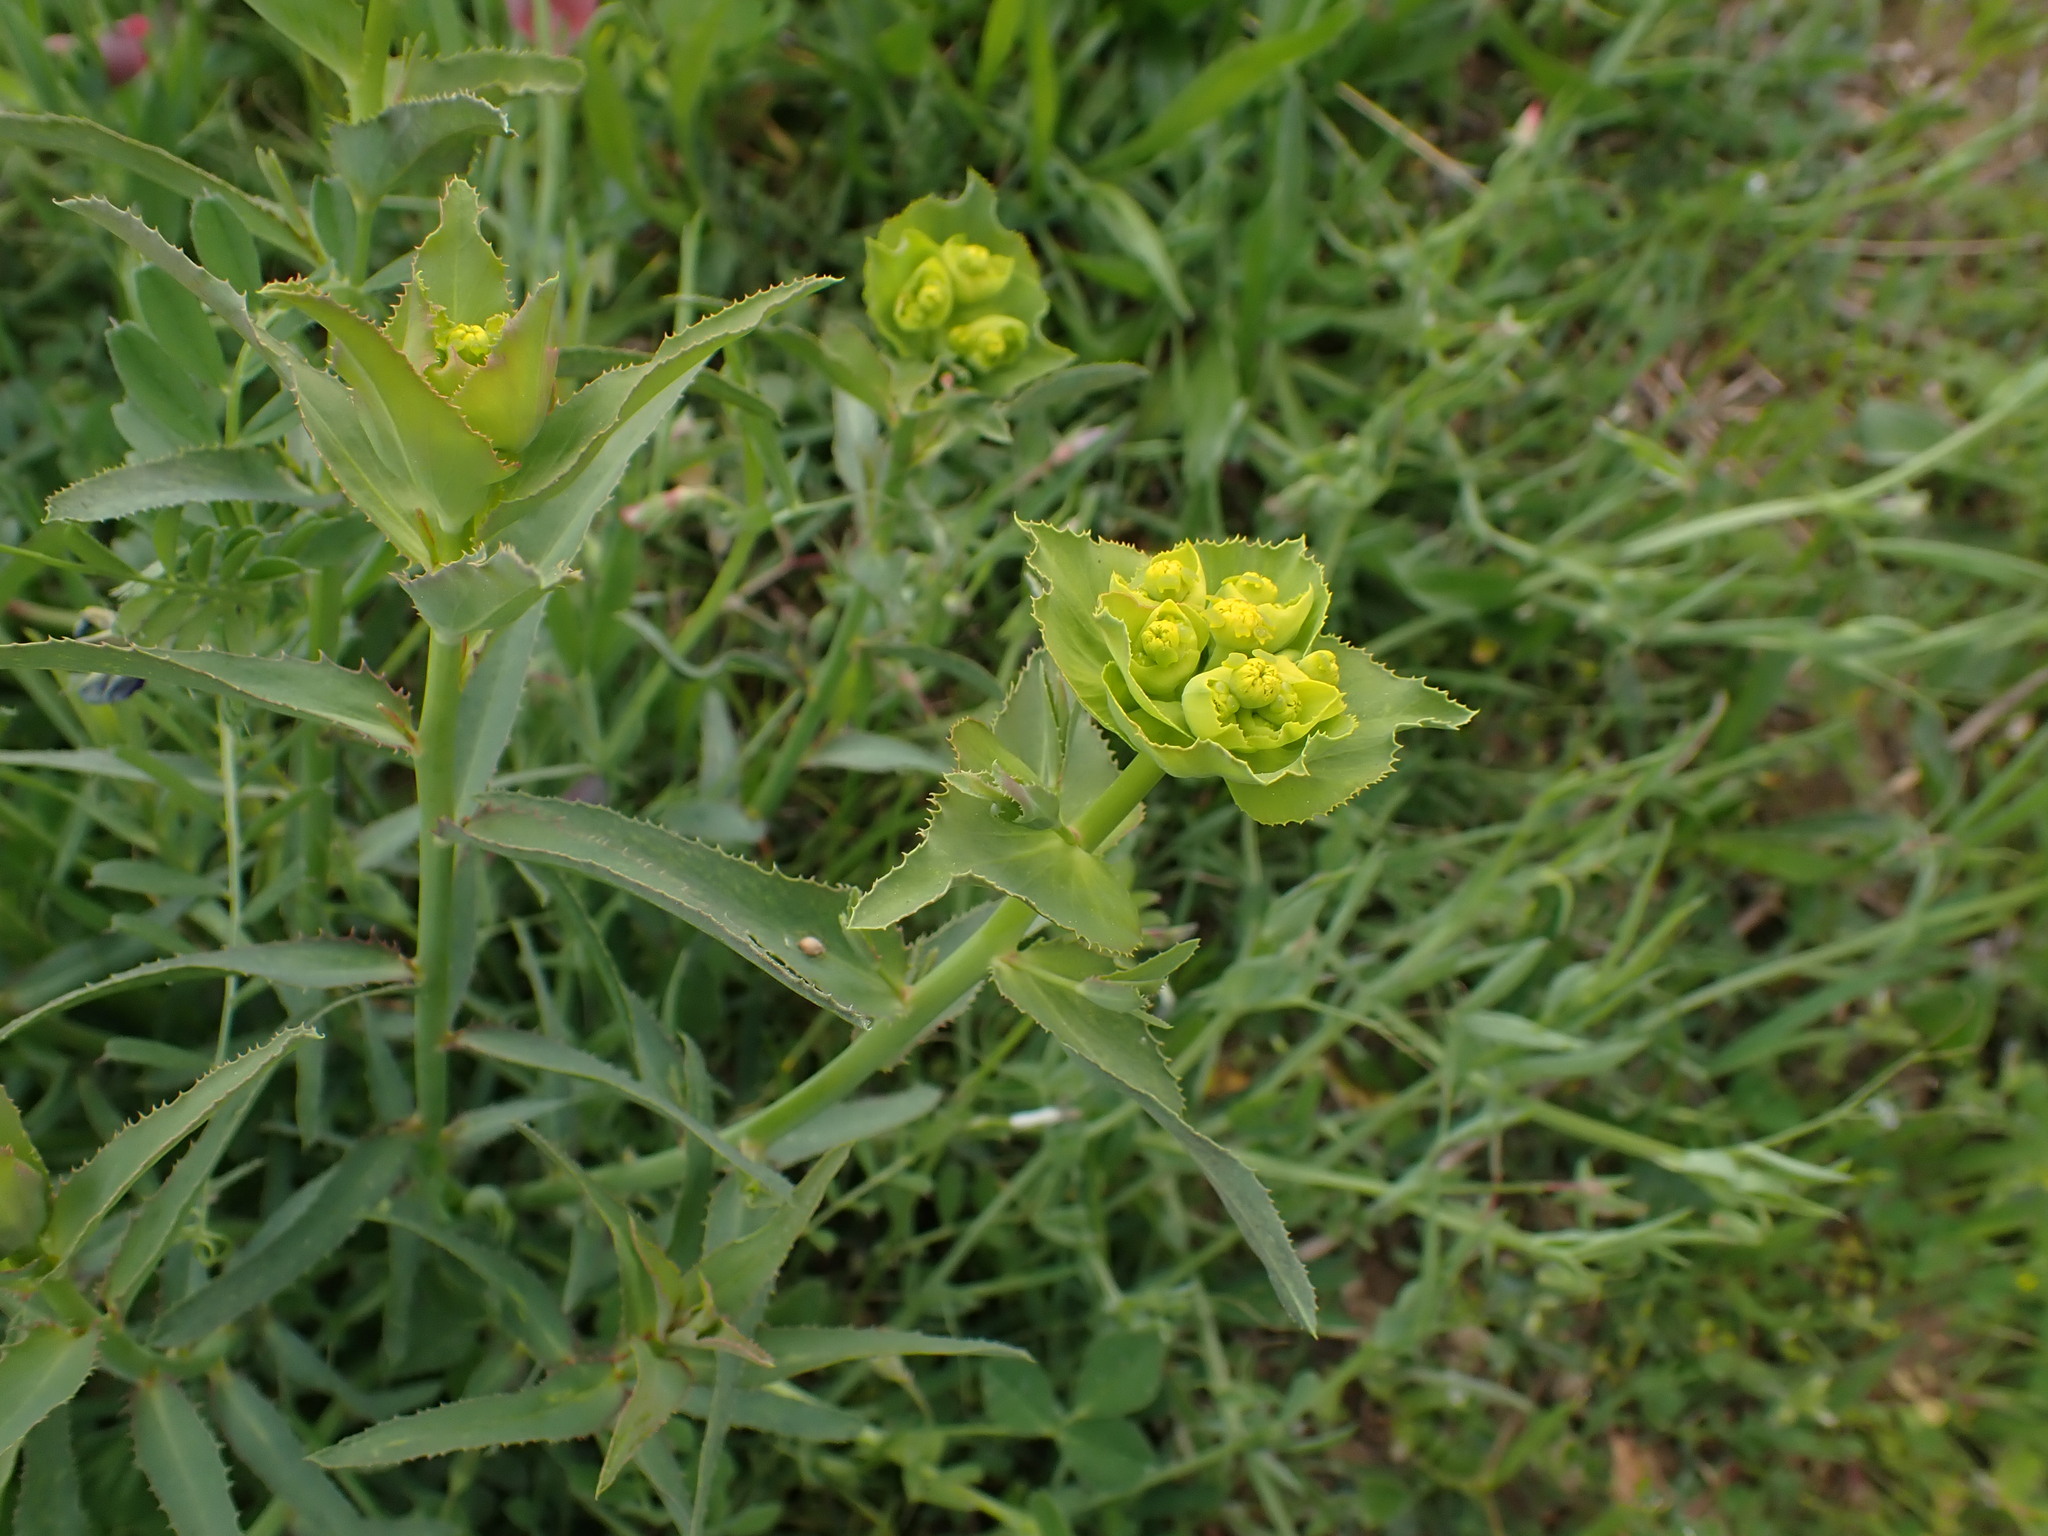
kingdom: Plantae
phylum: Tracheophyta
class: Magnoliopsida
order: Malpighiales
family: Euphorbiaceae
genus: Euphorbia
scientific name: Euphorbia serrata
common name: Serrate spurge
